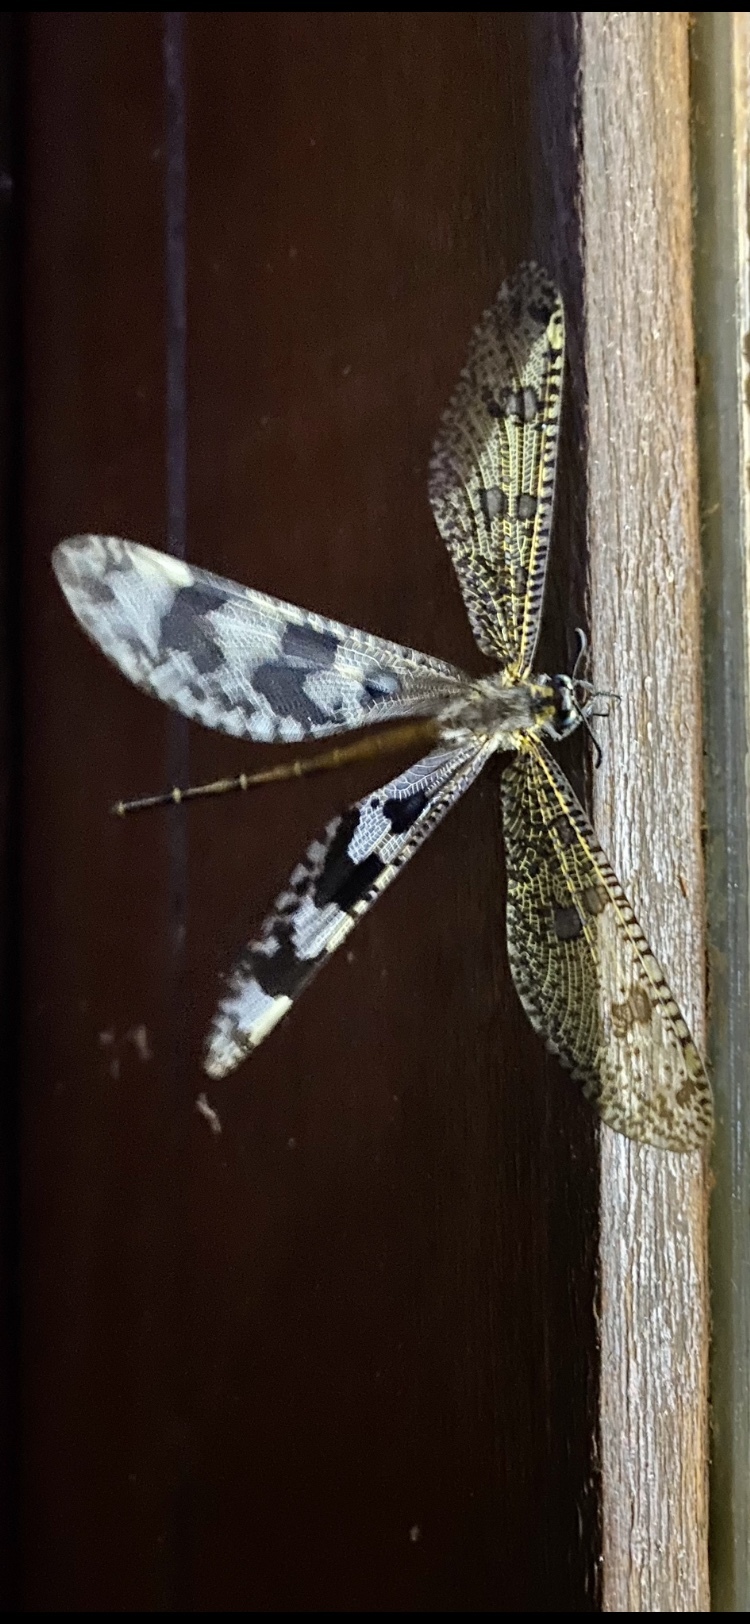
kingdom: Animalia
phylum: Arthropoda
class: Insecta
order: Neuroptera
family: Myrmeleontidae
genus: Palpares
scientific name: Palpares speciosus
